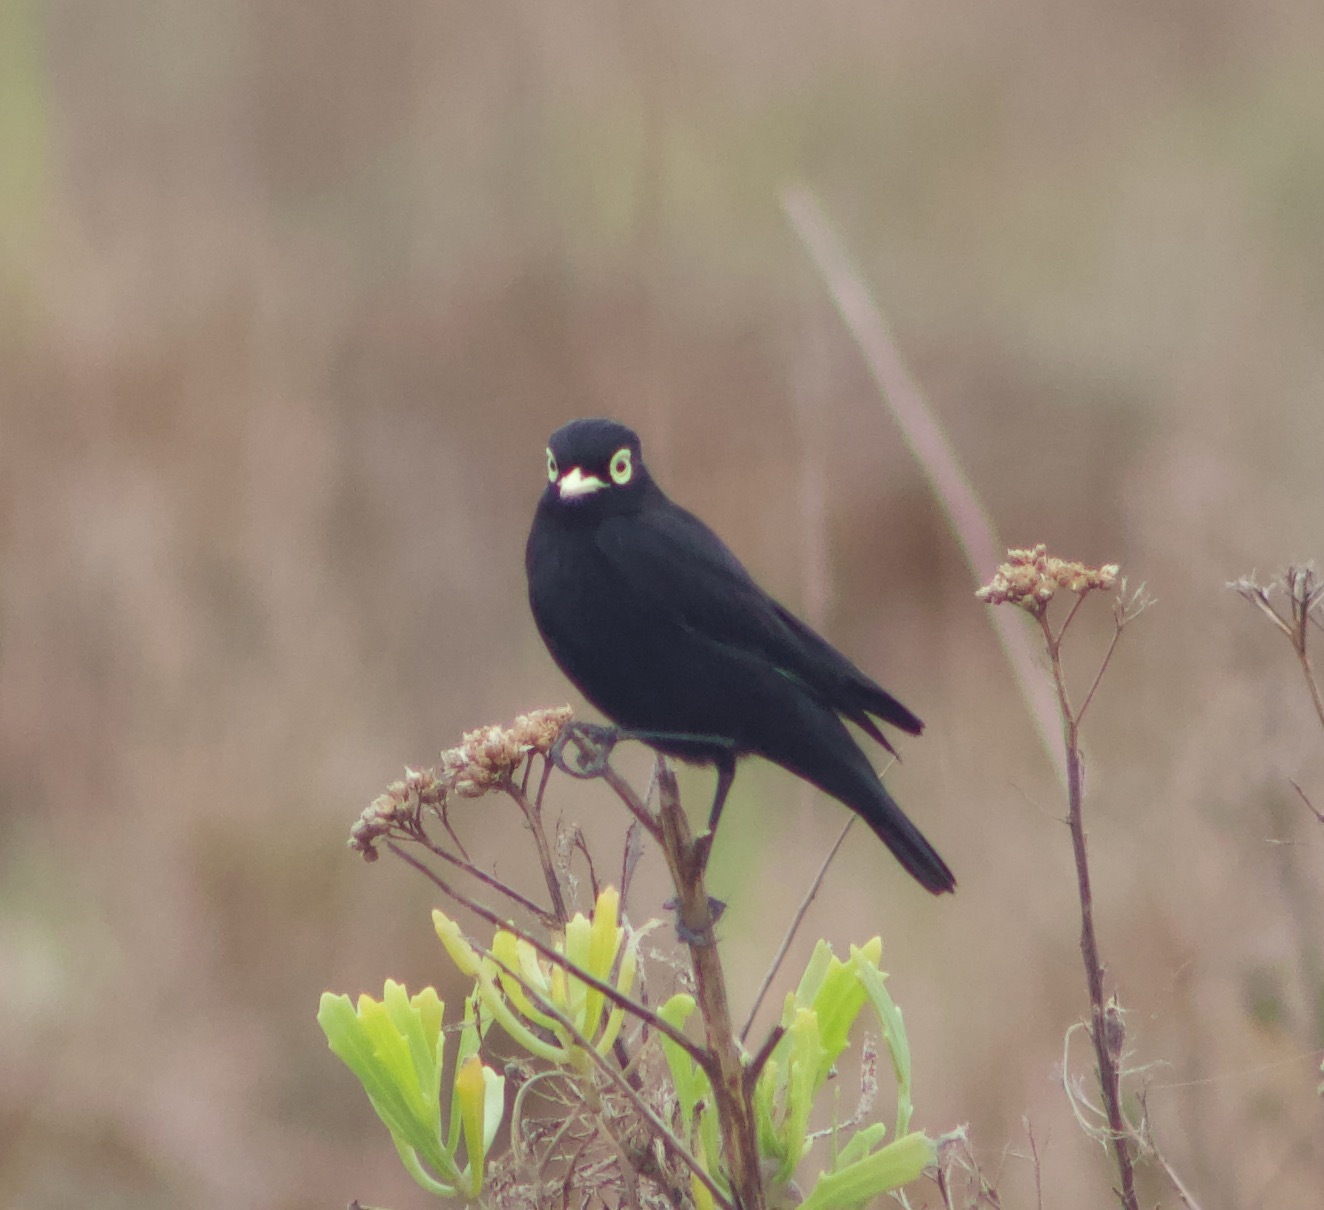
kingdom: Animalia
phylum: Chordata
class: Aves
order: Passeriformes
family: Tyrannidae
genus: Hymenops
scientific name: Hymenops perspicillatus
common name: Spectacled tyrant
